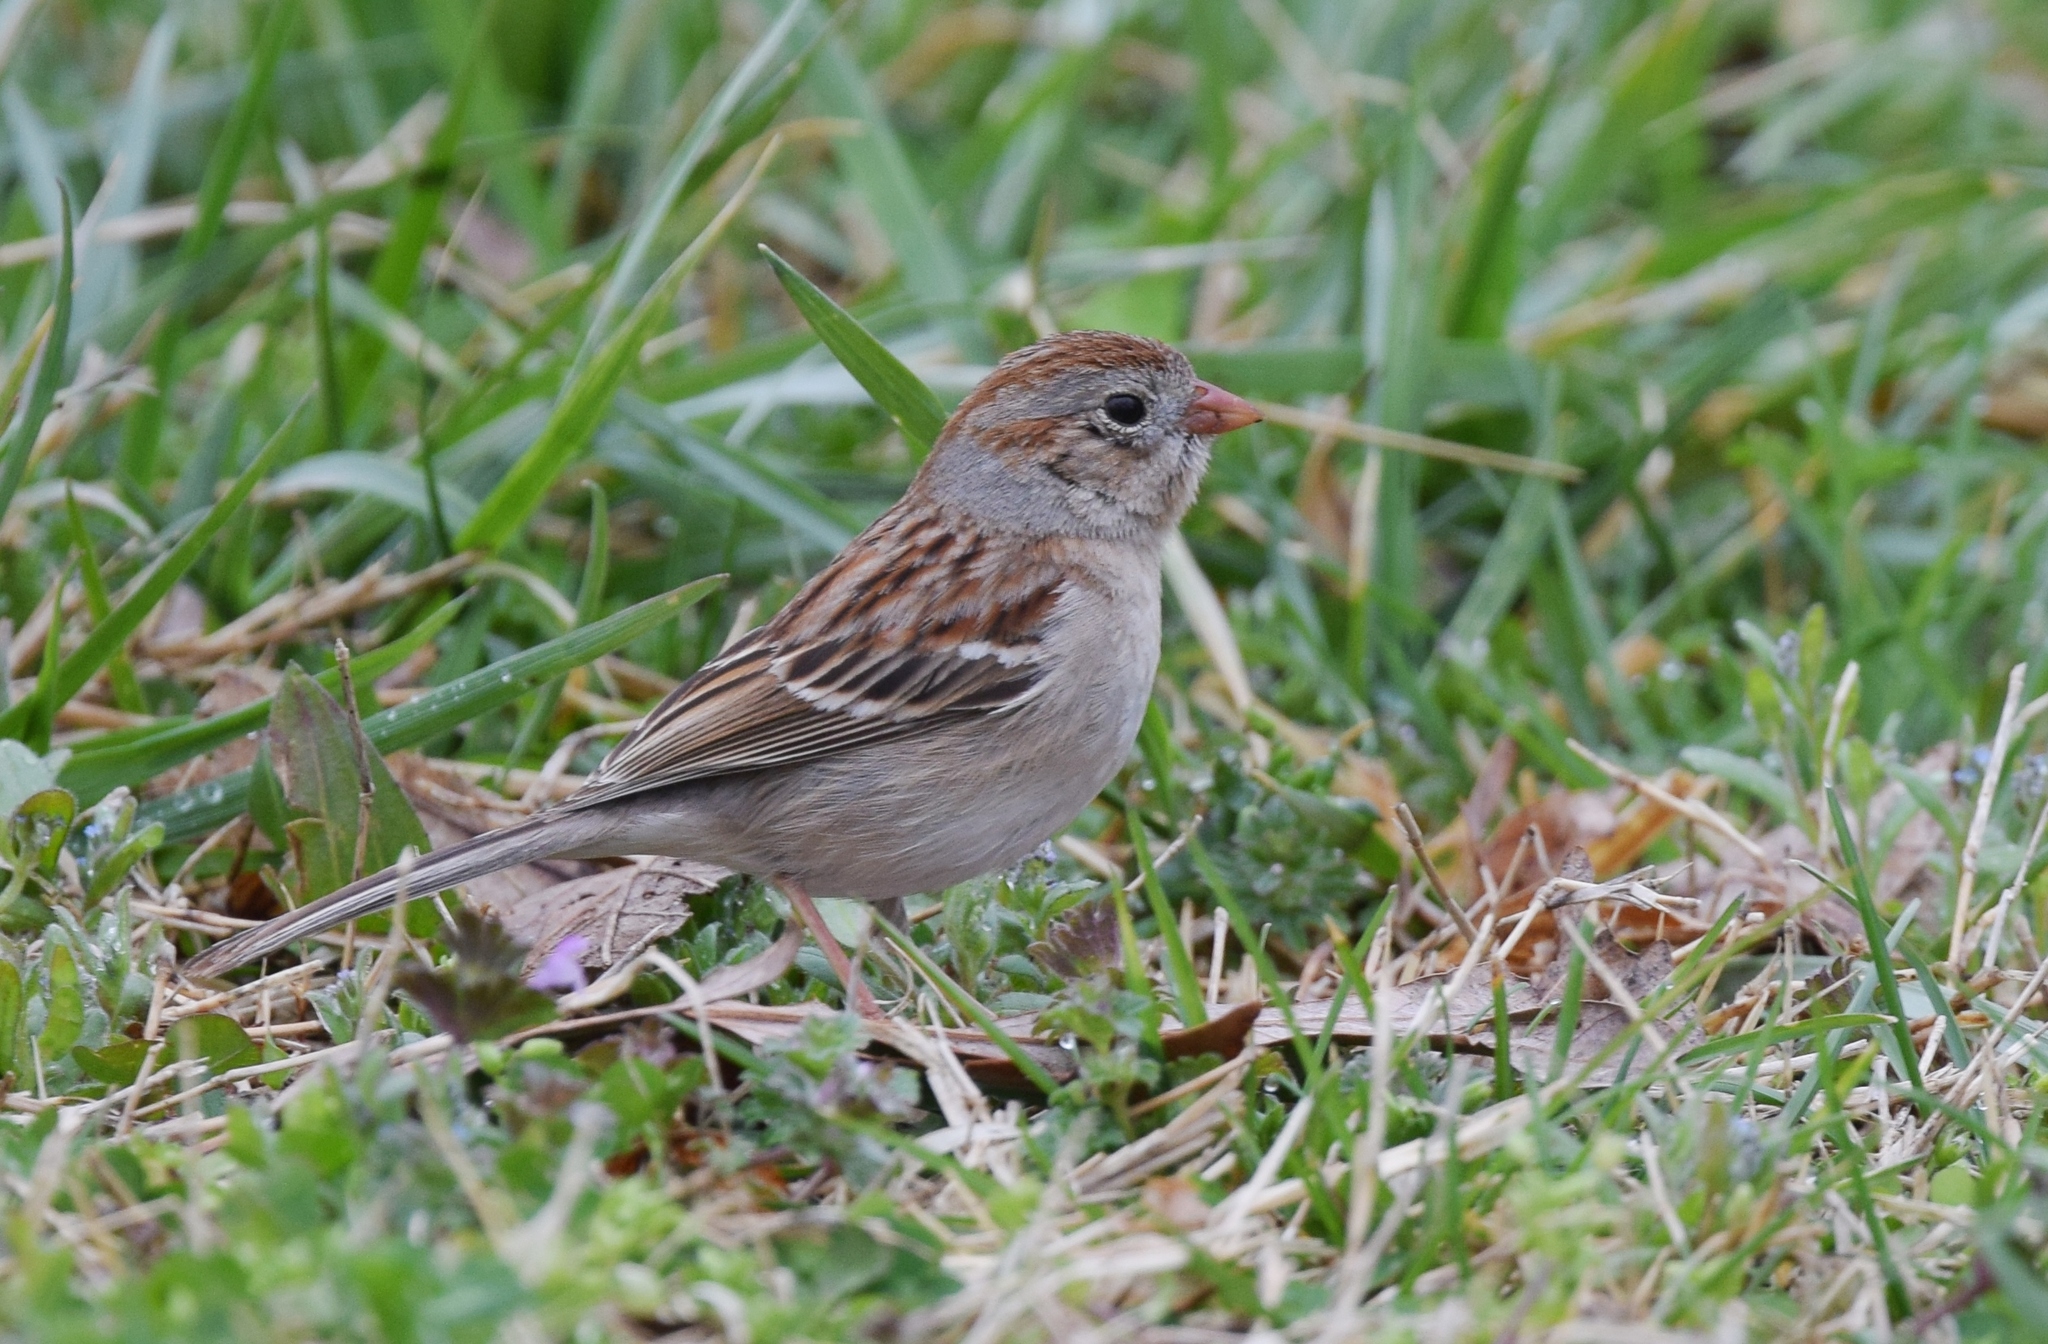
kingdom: Animalia
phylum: Chordata
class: Aves
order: Passeriformes
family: Passerellidae
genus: Spizella
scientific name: Spizella pusilla
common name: Field sparrow
